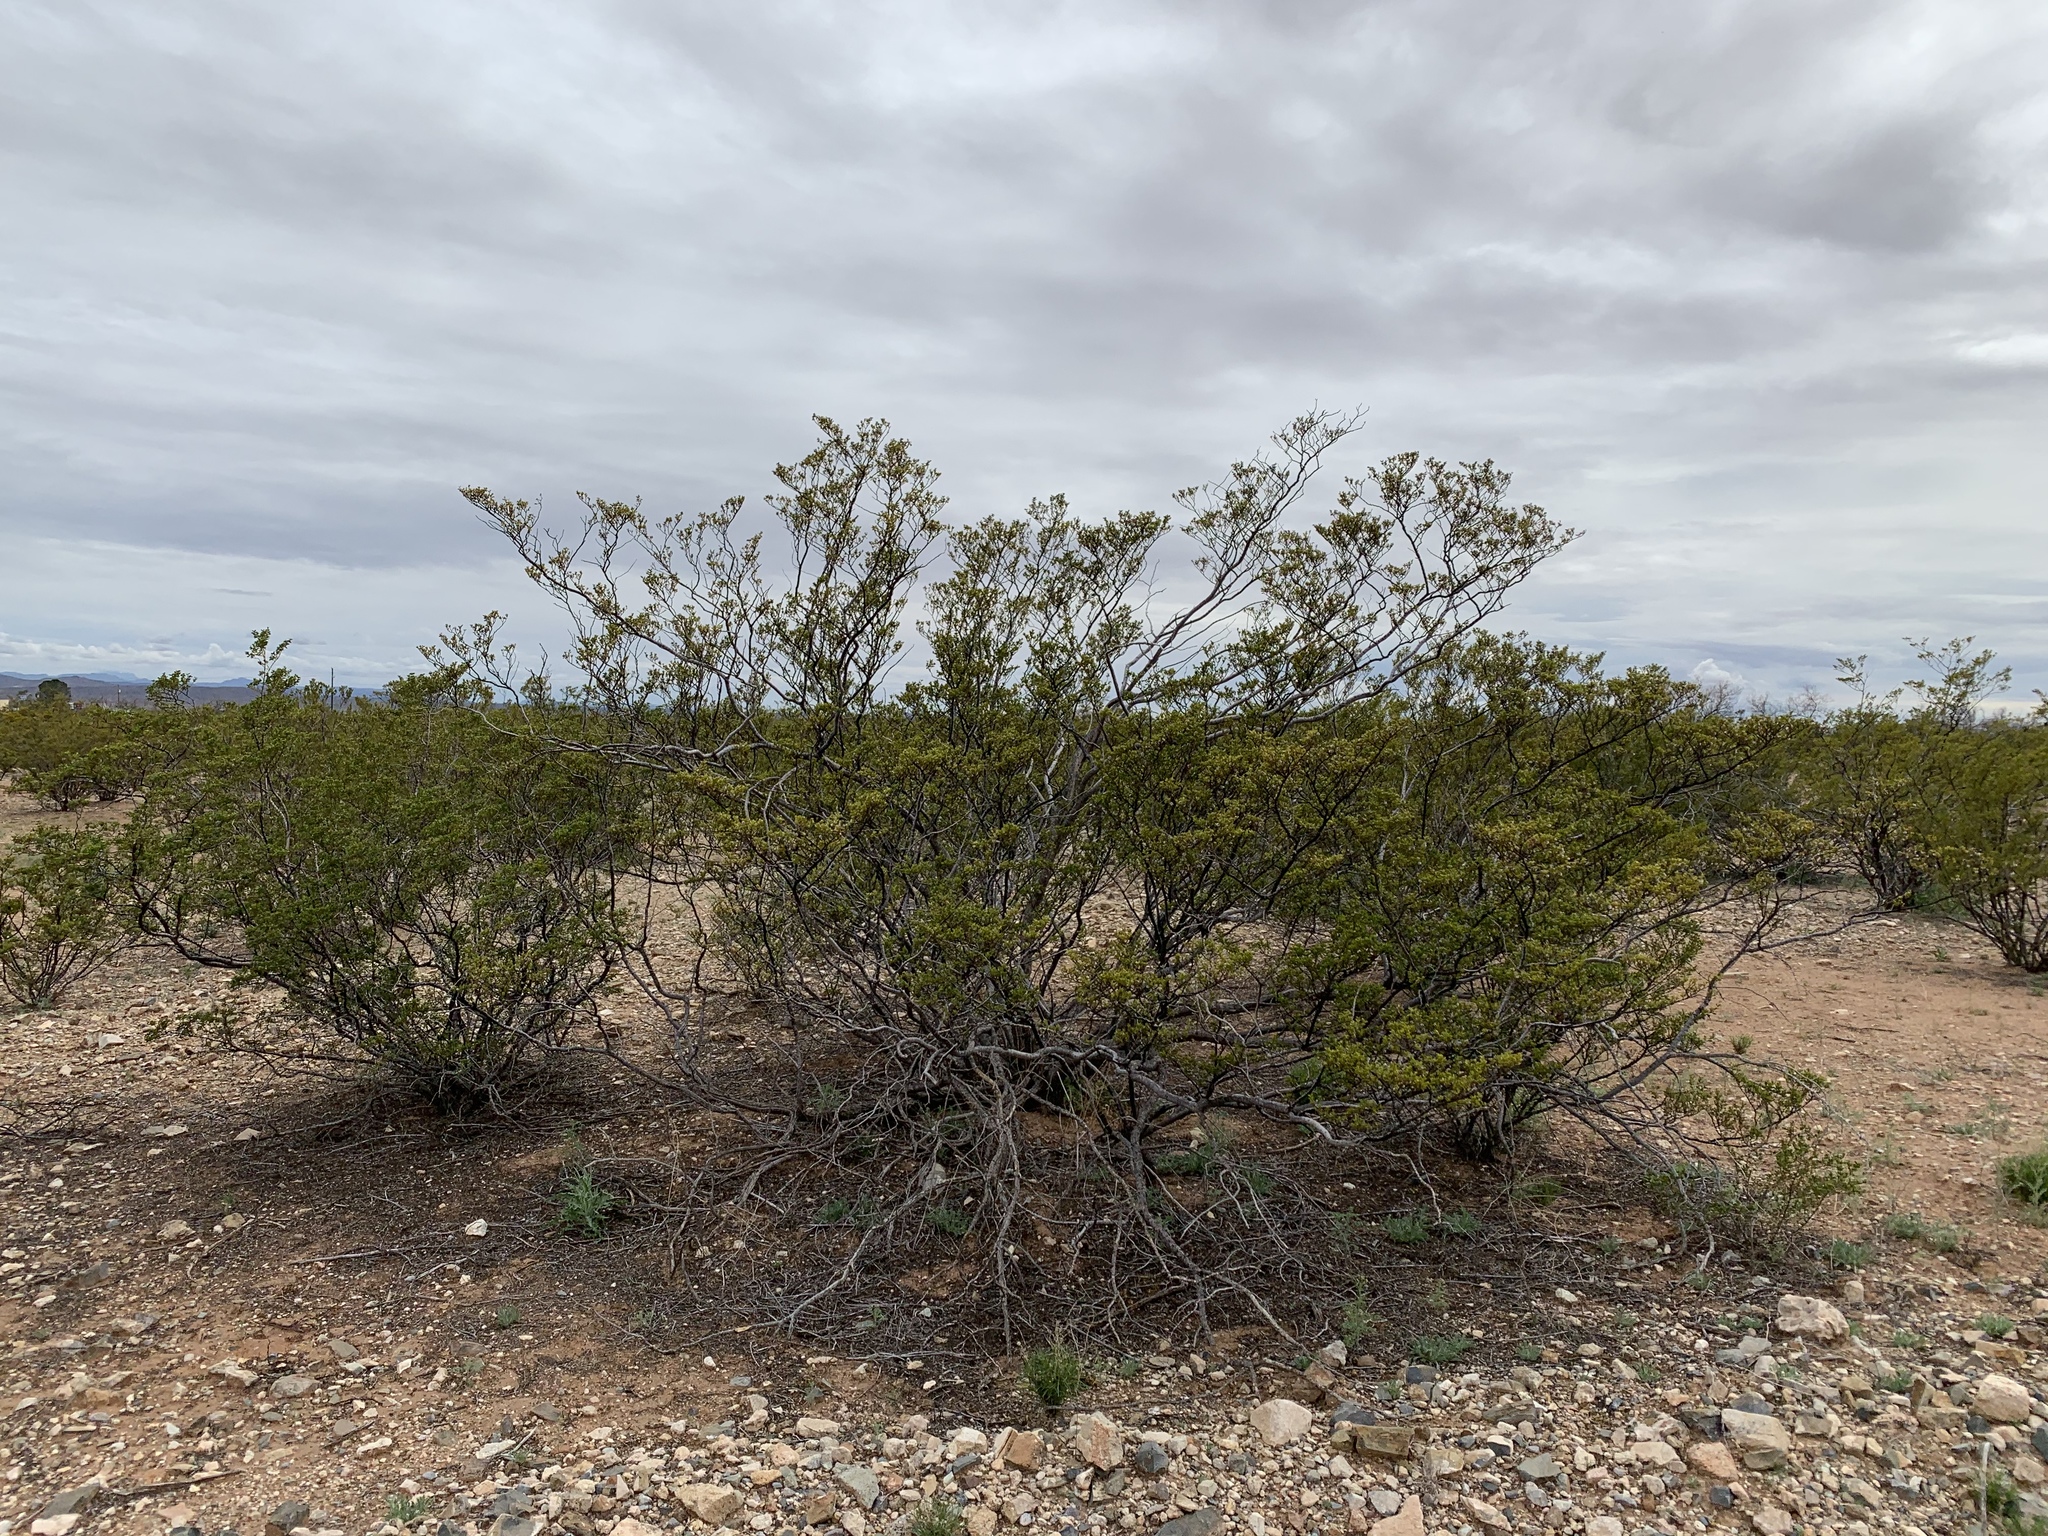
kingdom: Plantae
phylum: Tracheophyta
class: Magnoliopsida
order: Zygophyllales
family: Zygophyllaceae
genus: Larrea
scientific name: Larrea tridentata
